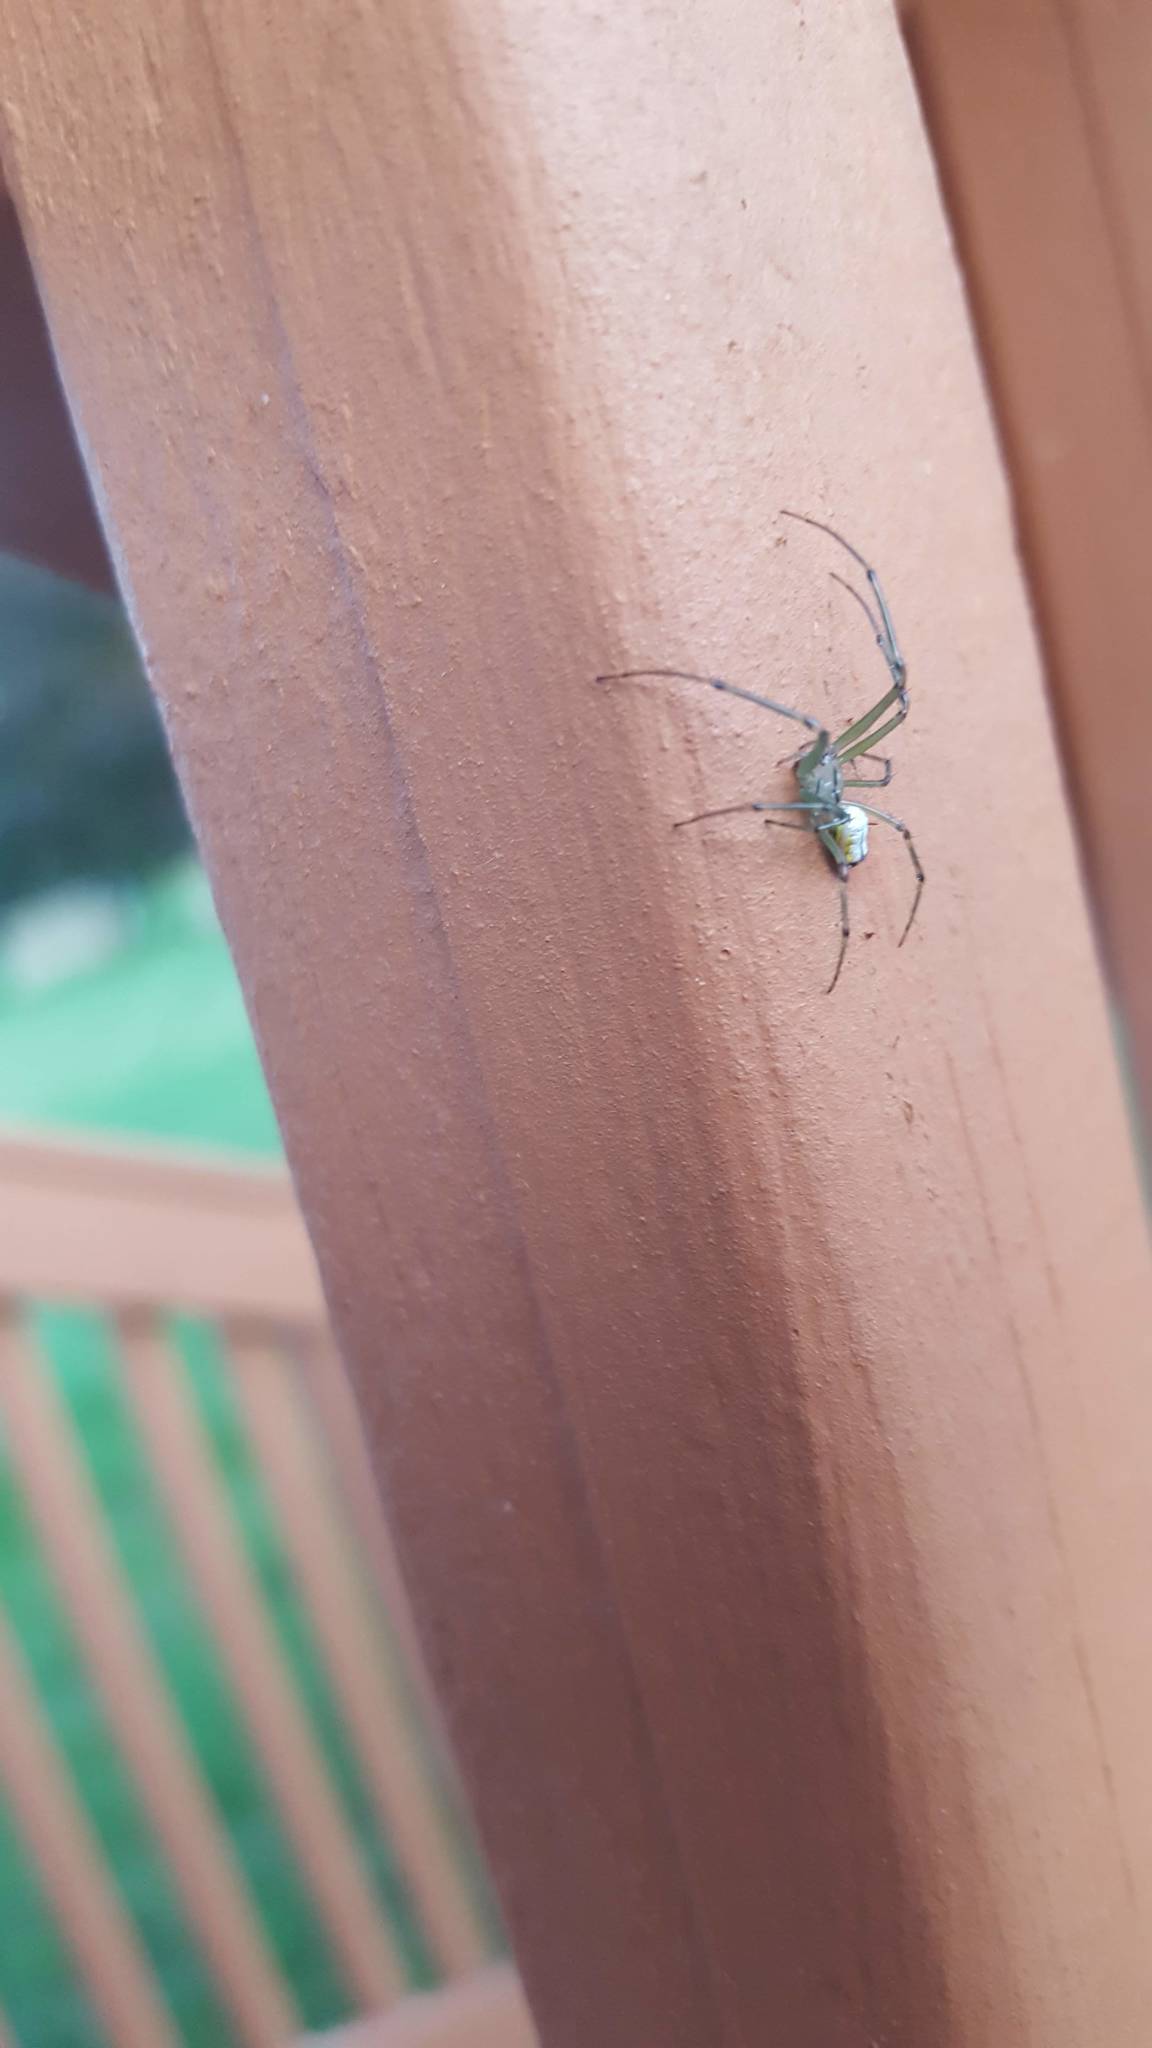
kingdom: Animalia
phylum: Arthropoda
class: Arachnida
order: Araneae
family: Tetragnathidae
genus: Leucauge
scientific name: Leucauge venusta
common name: Longjawed orb weavers
